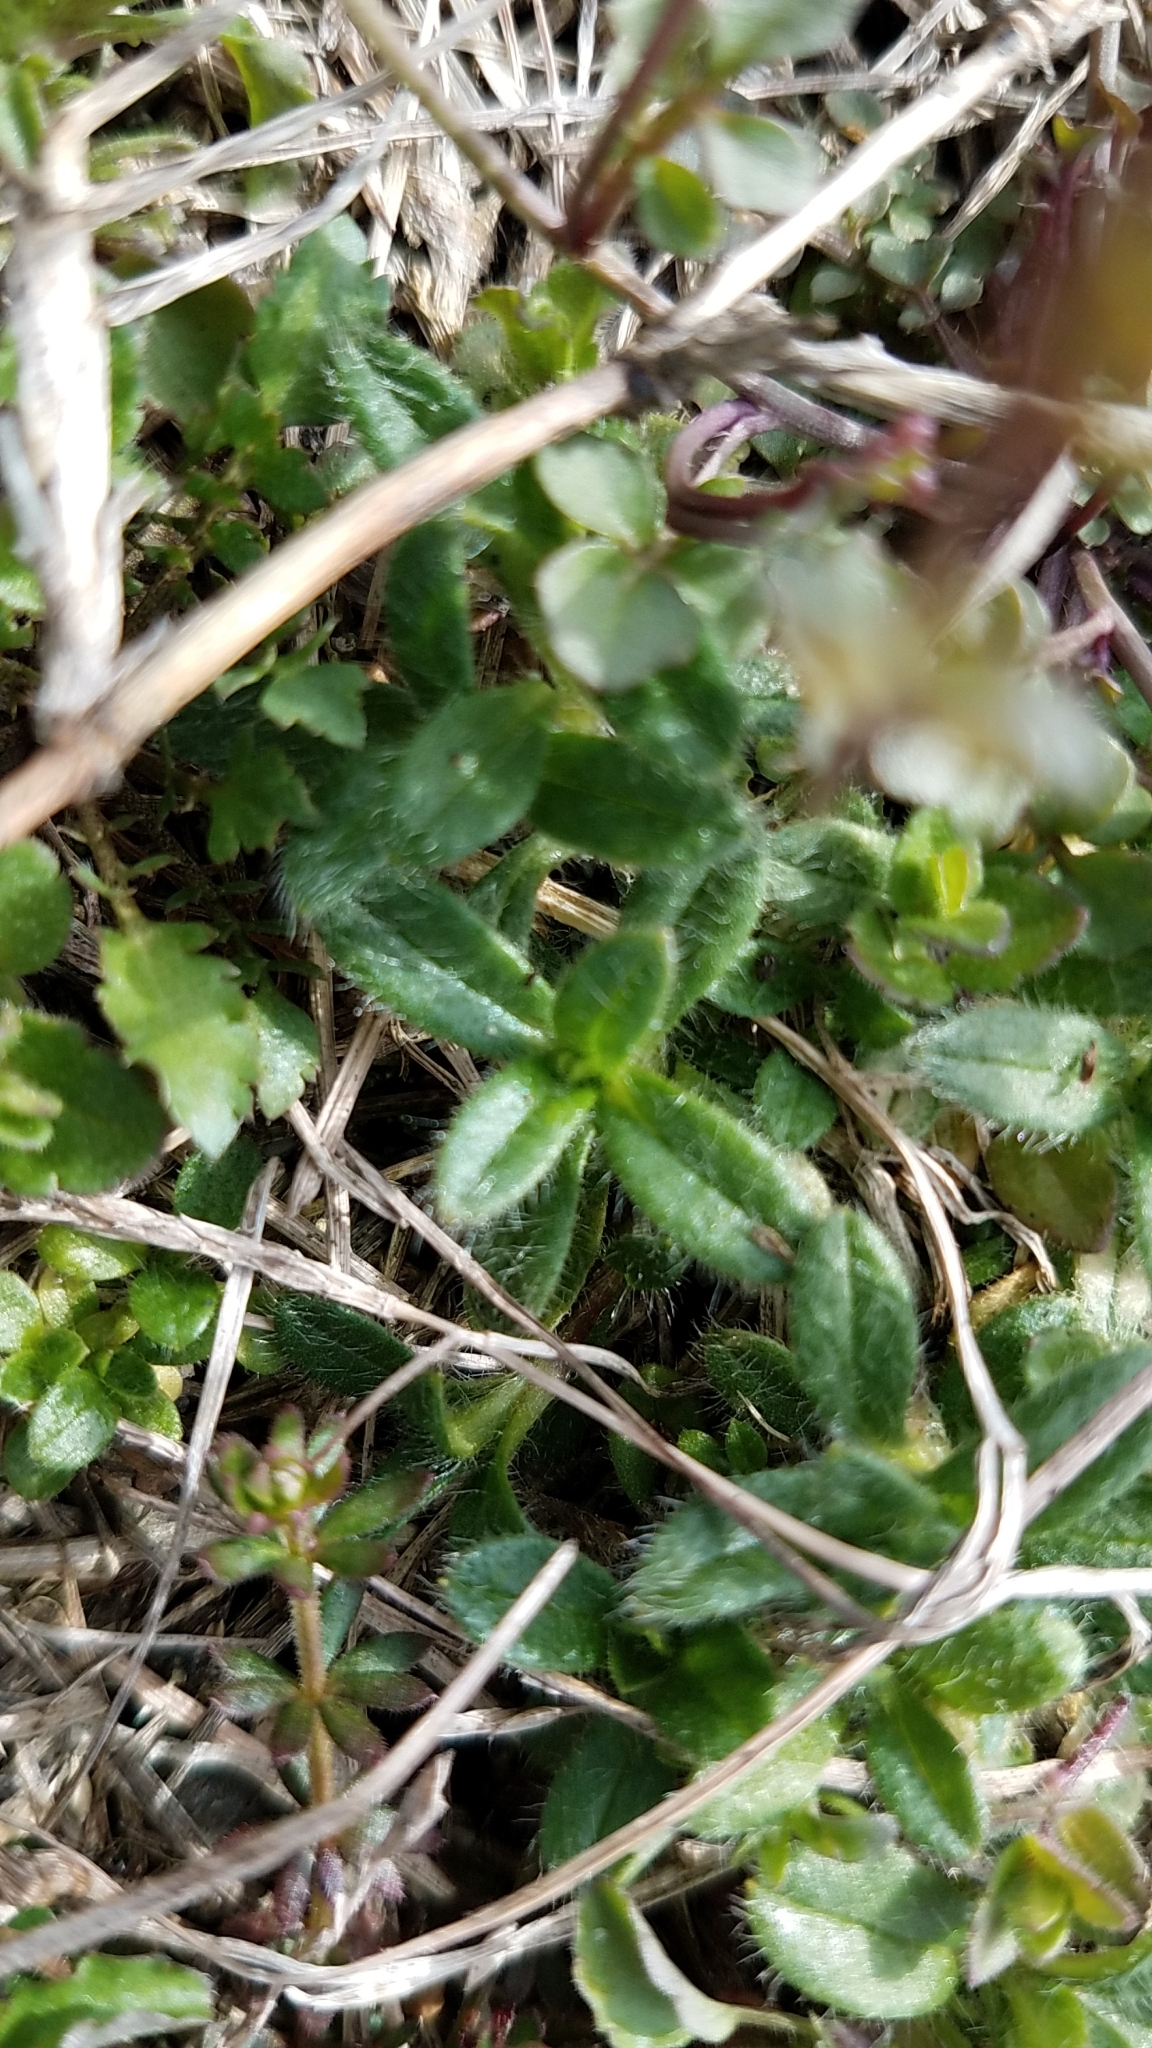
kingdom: Plantae
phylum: Tracheophyta
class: Magnoliopsida
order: Malpighiales
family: Violaceae
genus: Viola
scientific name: Viola rafinesquei
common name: American field pansy
